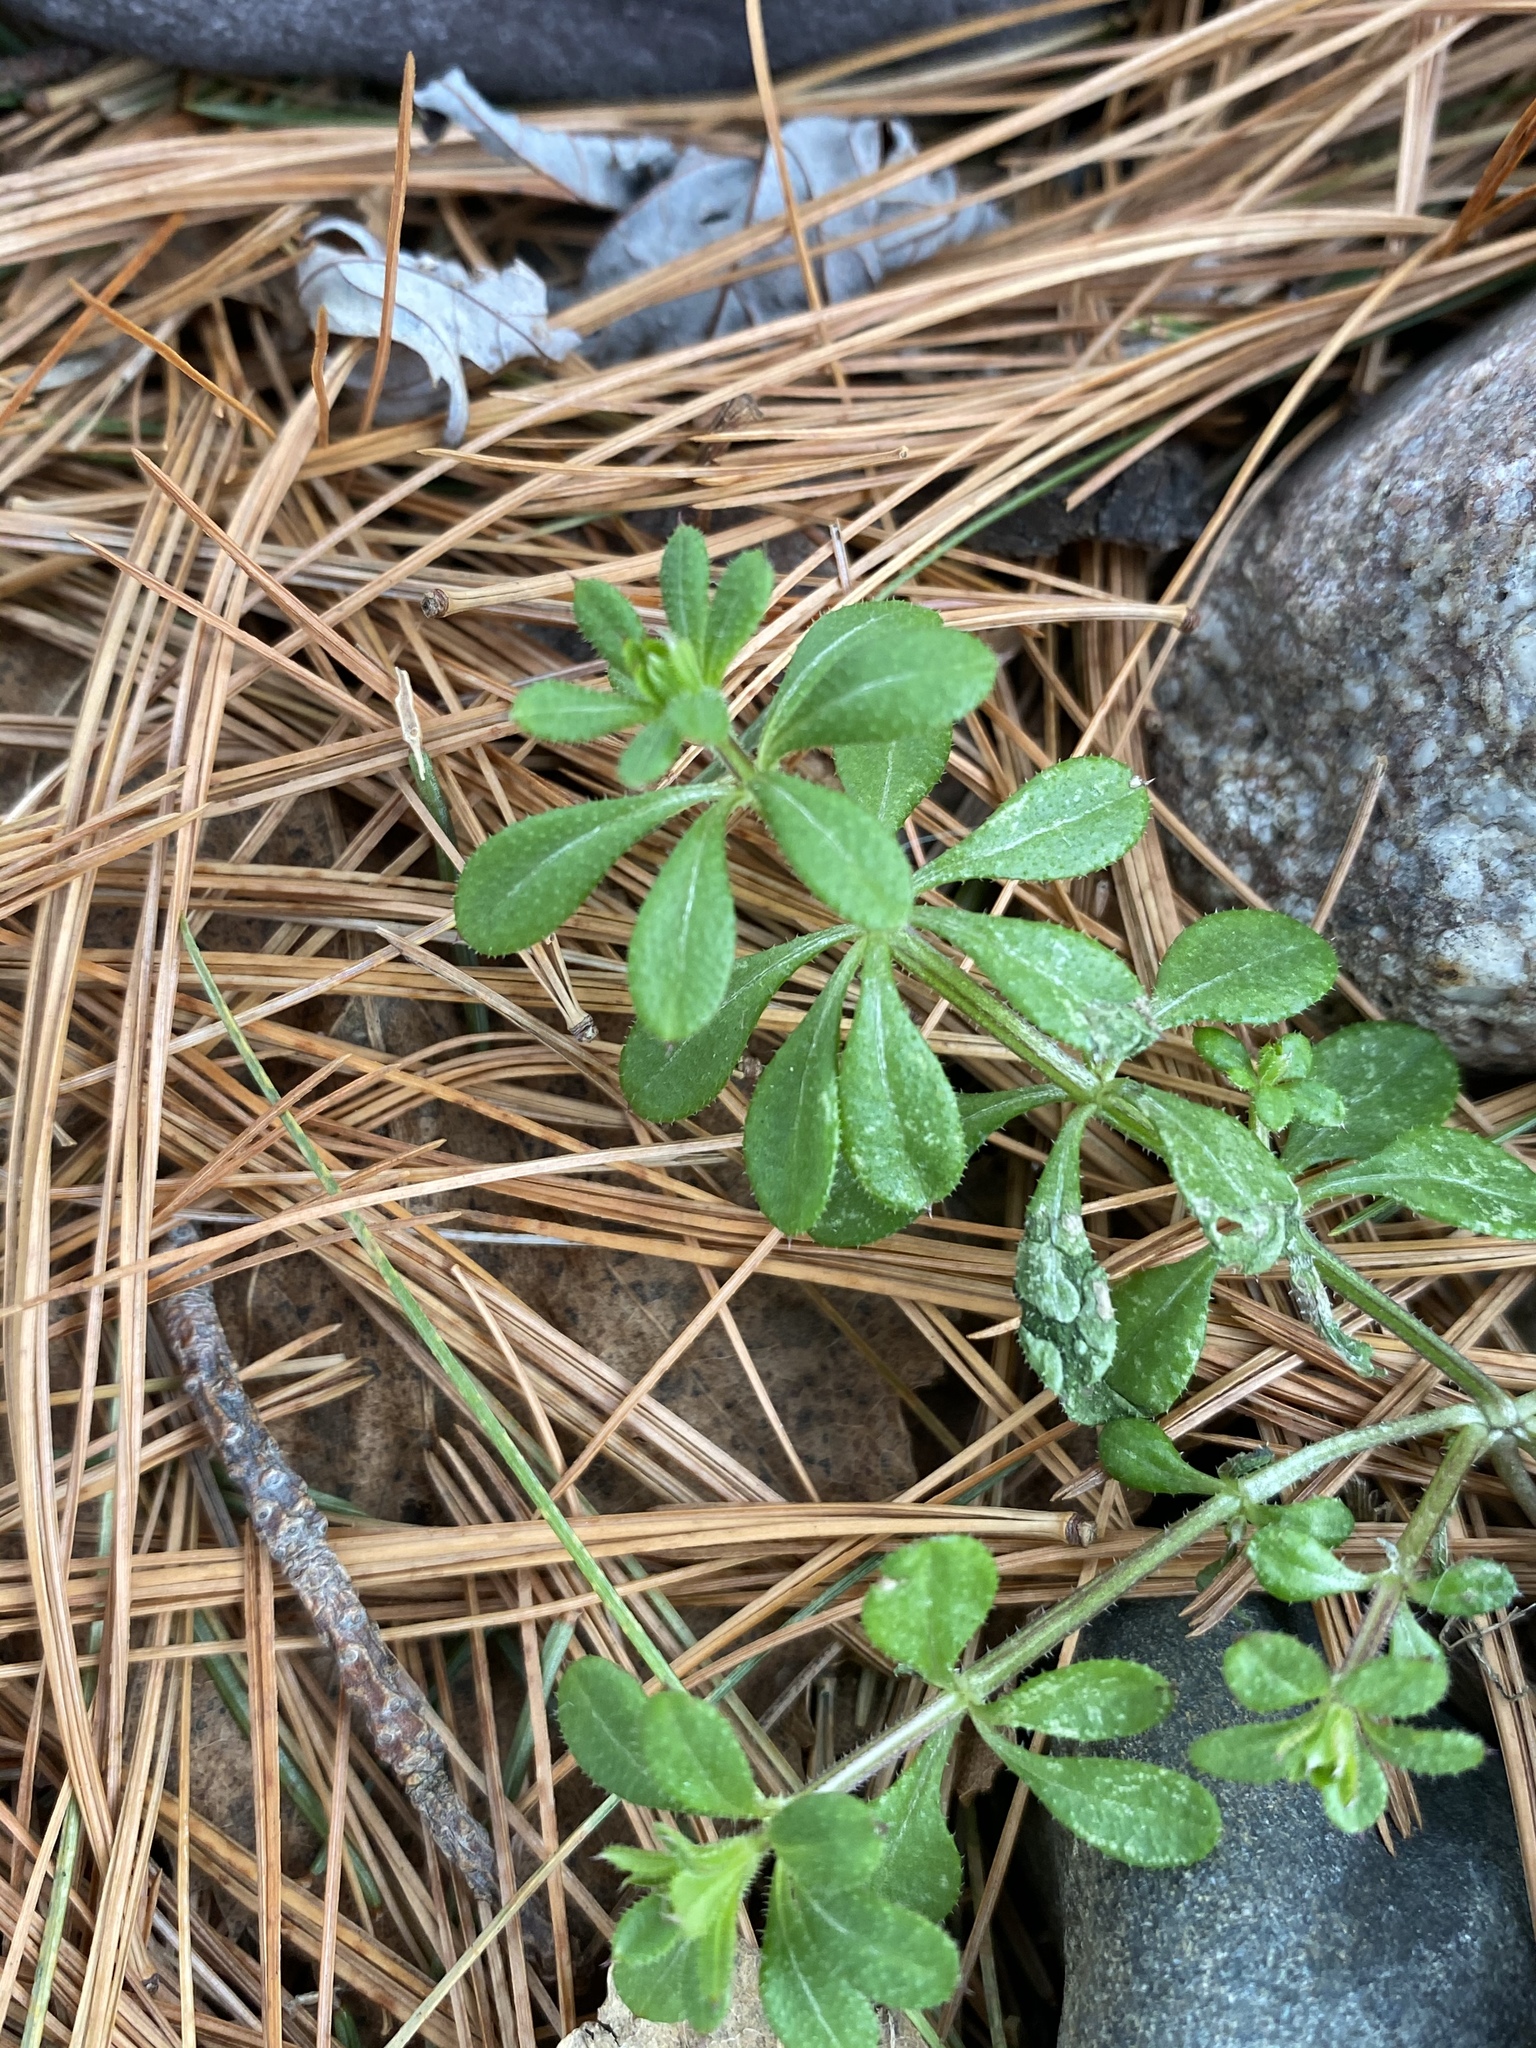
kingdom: Plantae
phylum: Tracheophyta
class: Magnoliopsida
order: Gentianales
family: Rubiaceae
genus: Galium
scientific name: Galium aparine
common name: Cleavers
